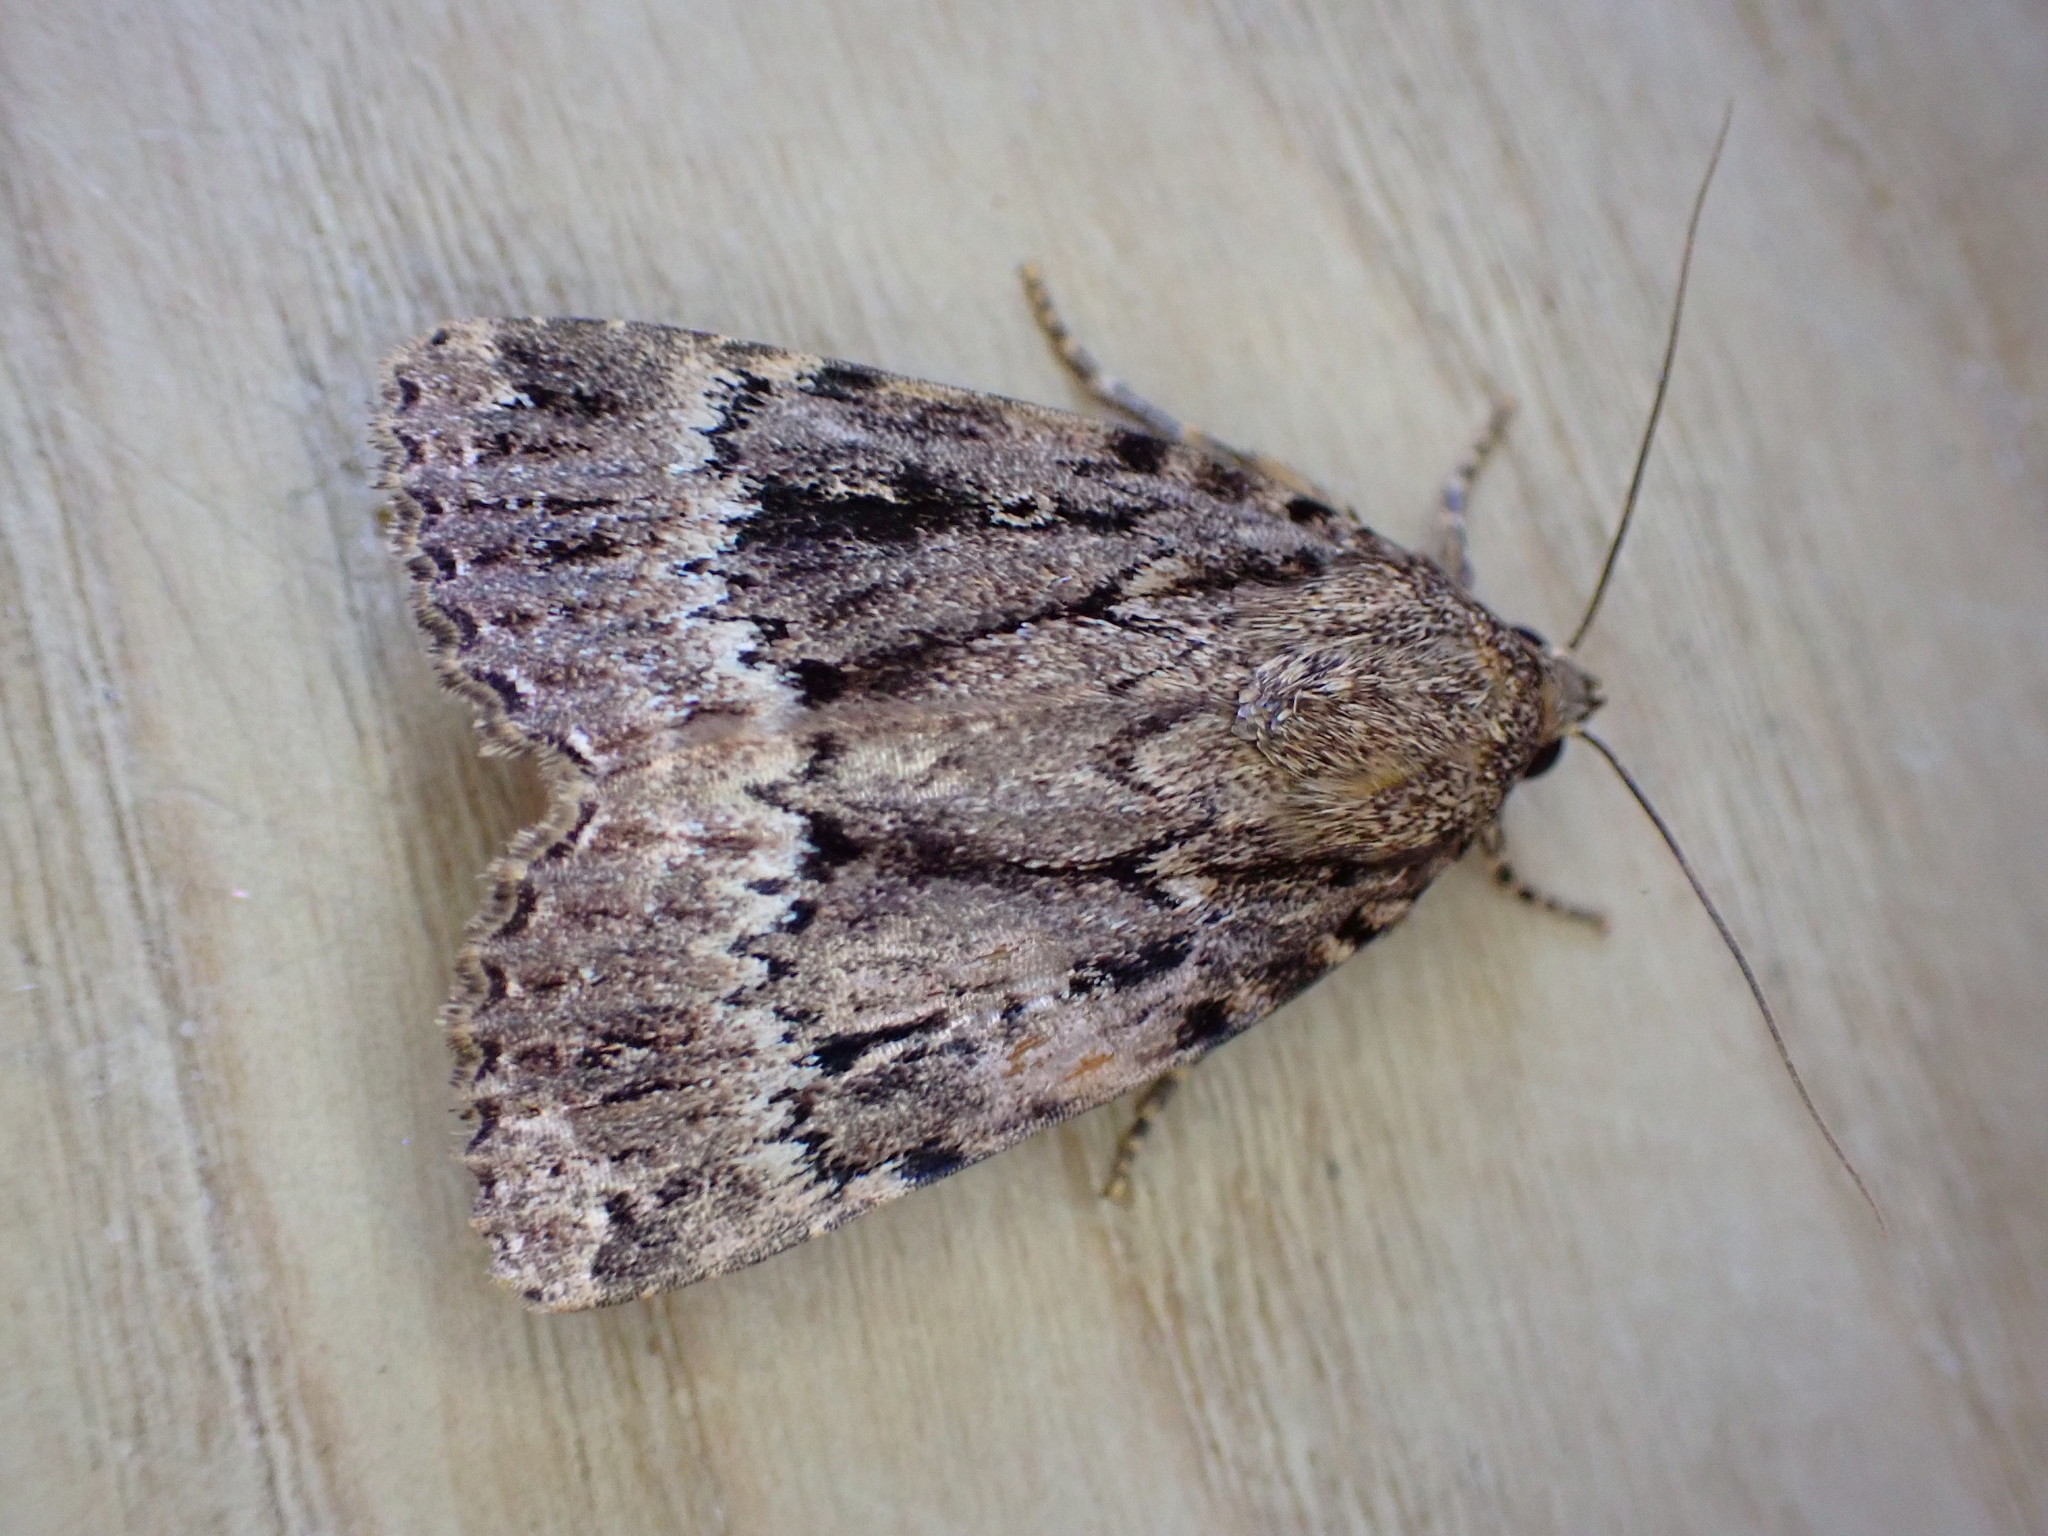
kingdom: Animalia
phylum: Arthropoda
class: Insecta
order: Lepidoptera
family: Noctuidae
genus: Amphipyra
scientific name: Amphipyra pyramidea
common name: Copper underwing
